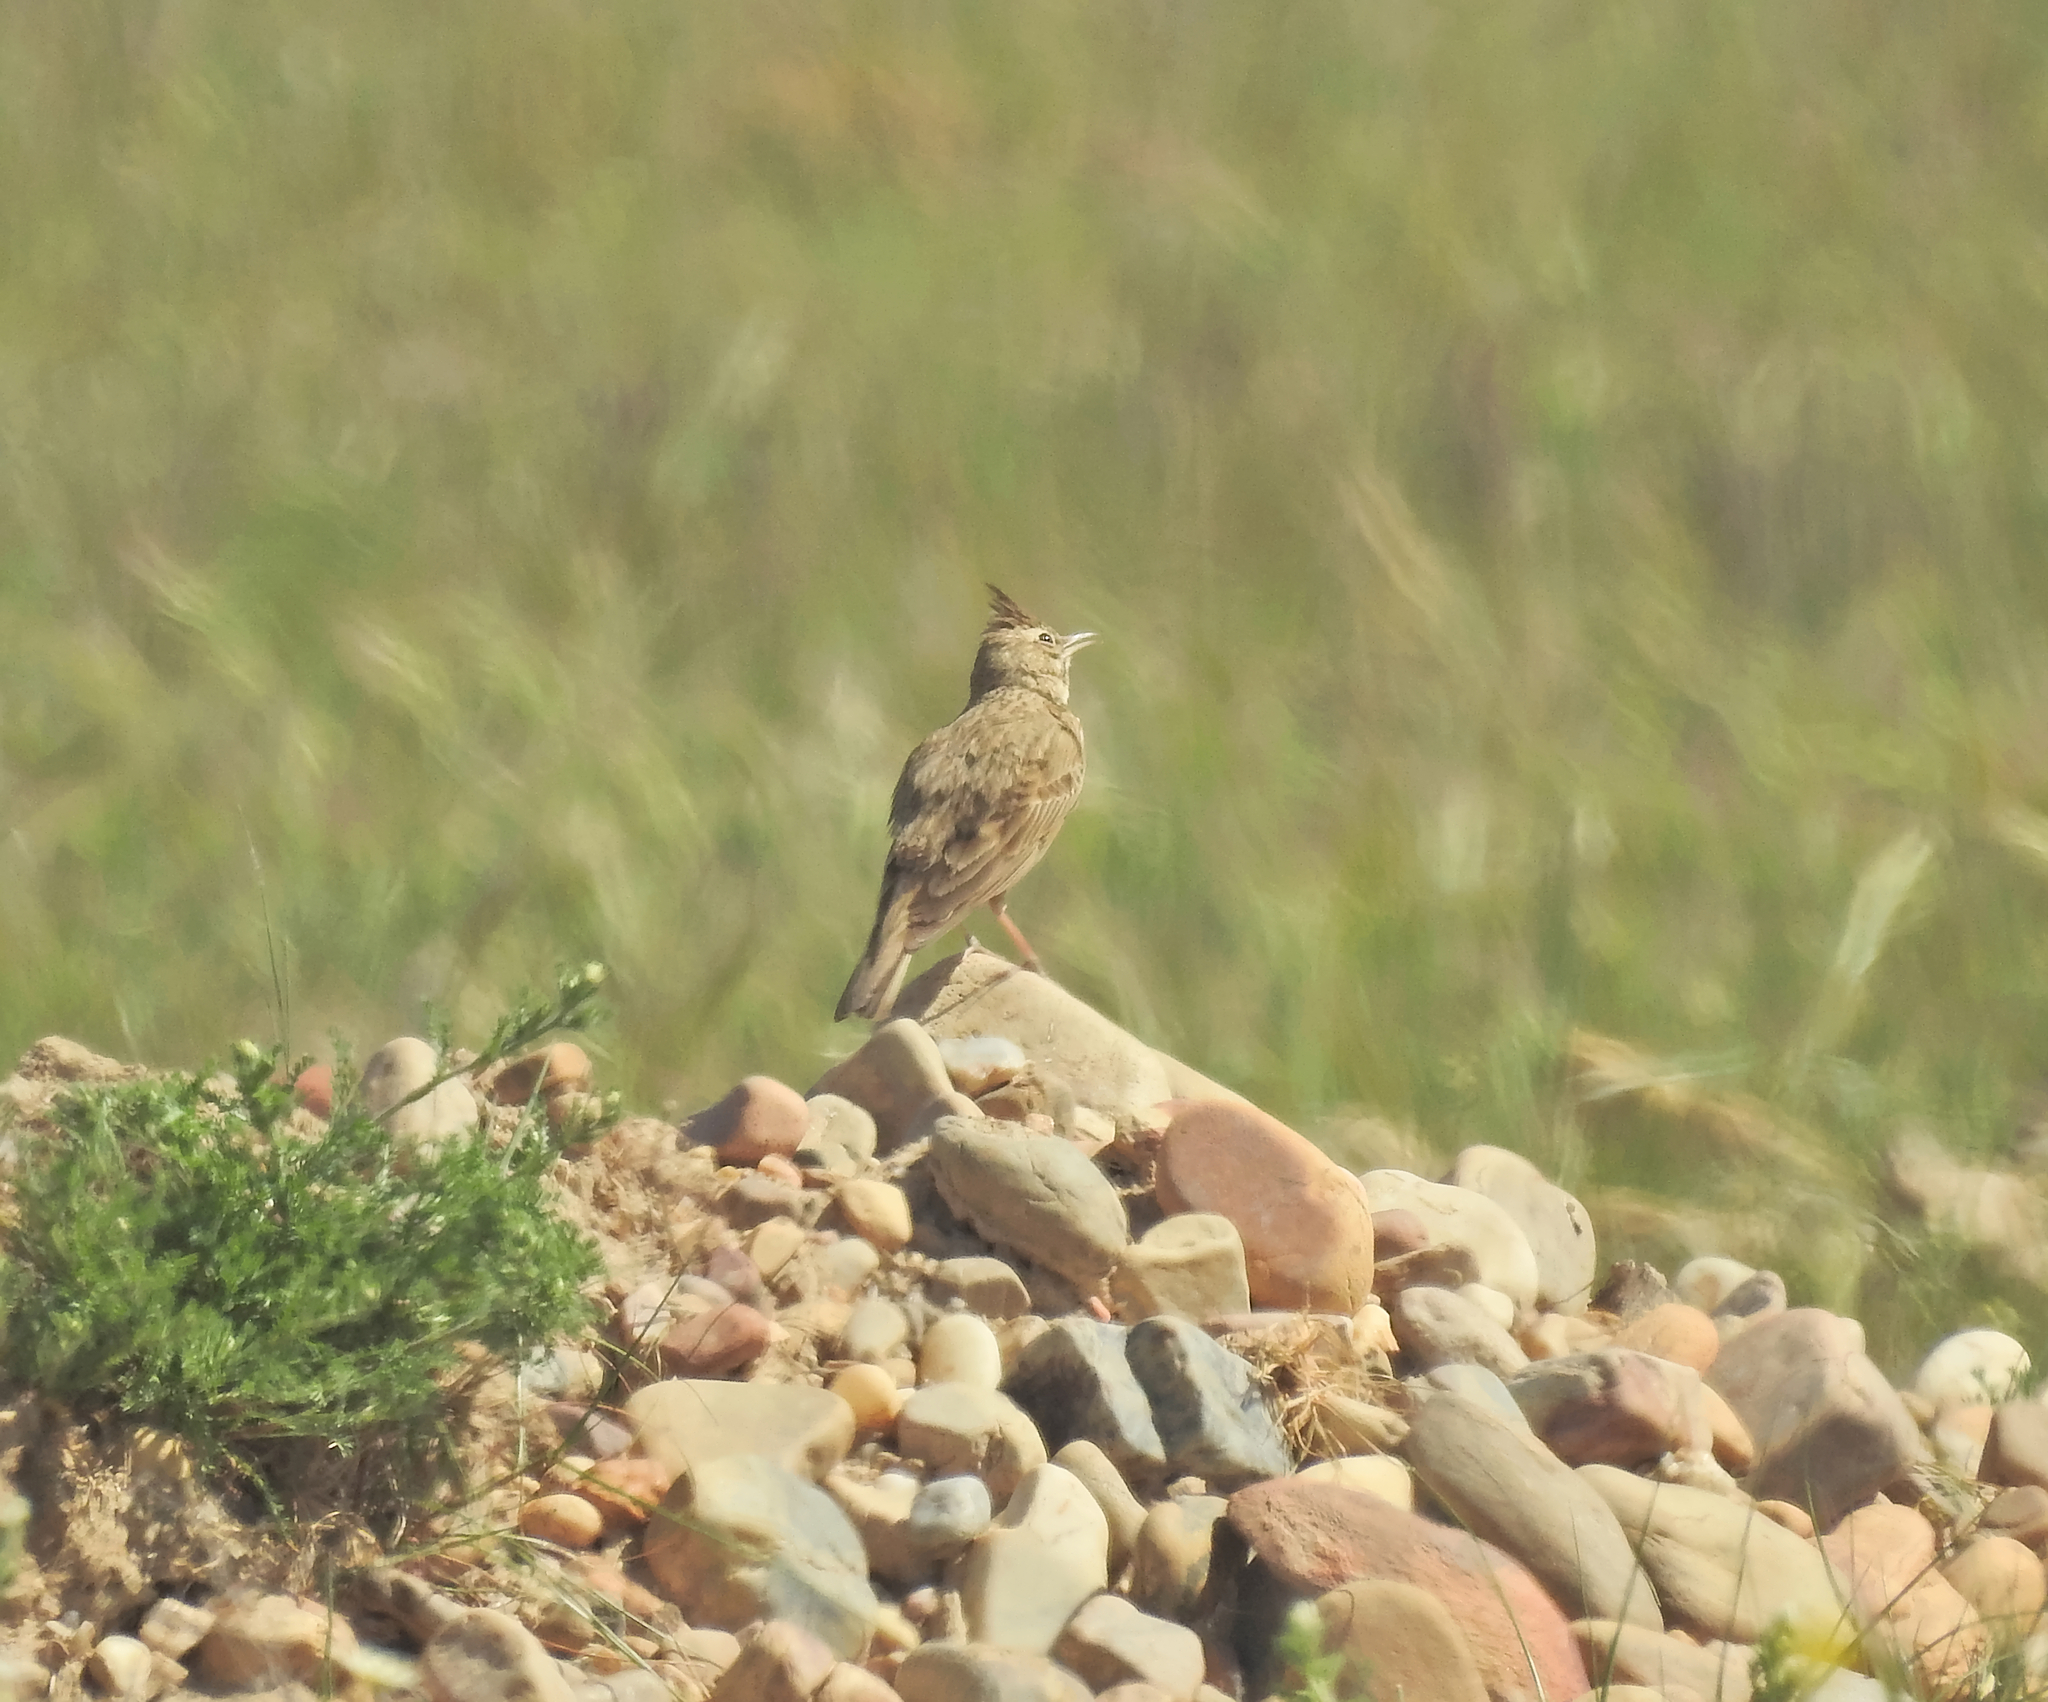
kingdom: Animalia
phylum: Chordata
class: Aves
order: Passeriformes
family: Alaudidae
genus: Galerida
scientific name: Galerida cristata
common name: Crested lark
